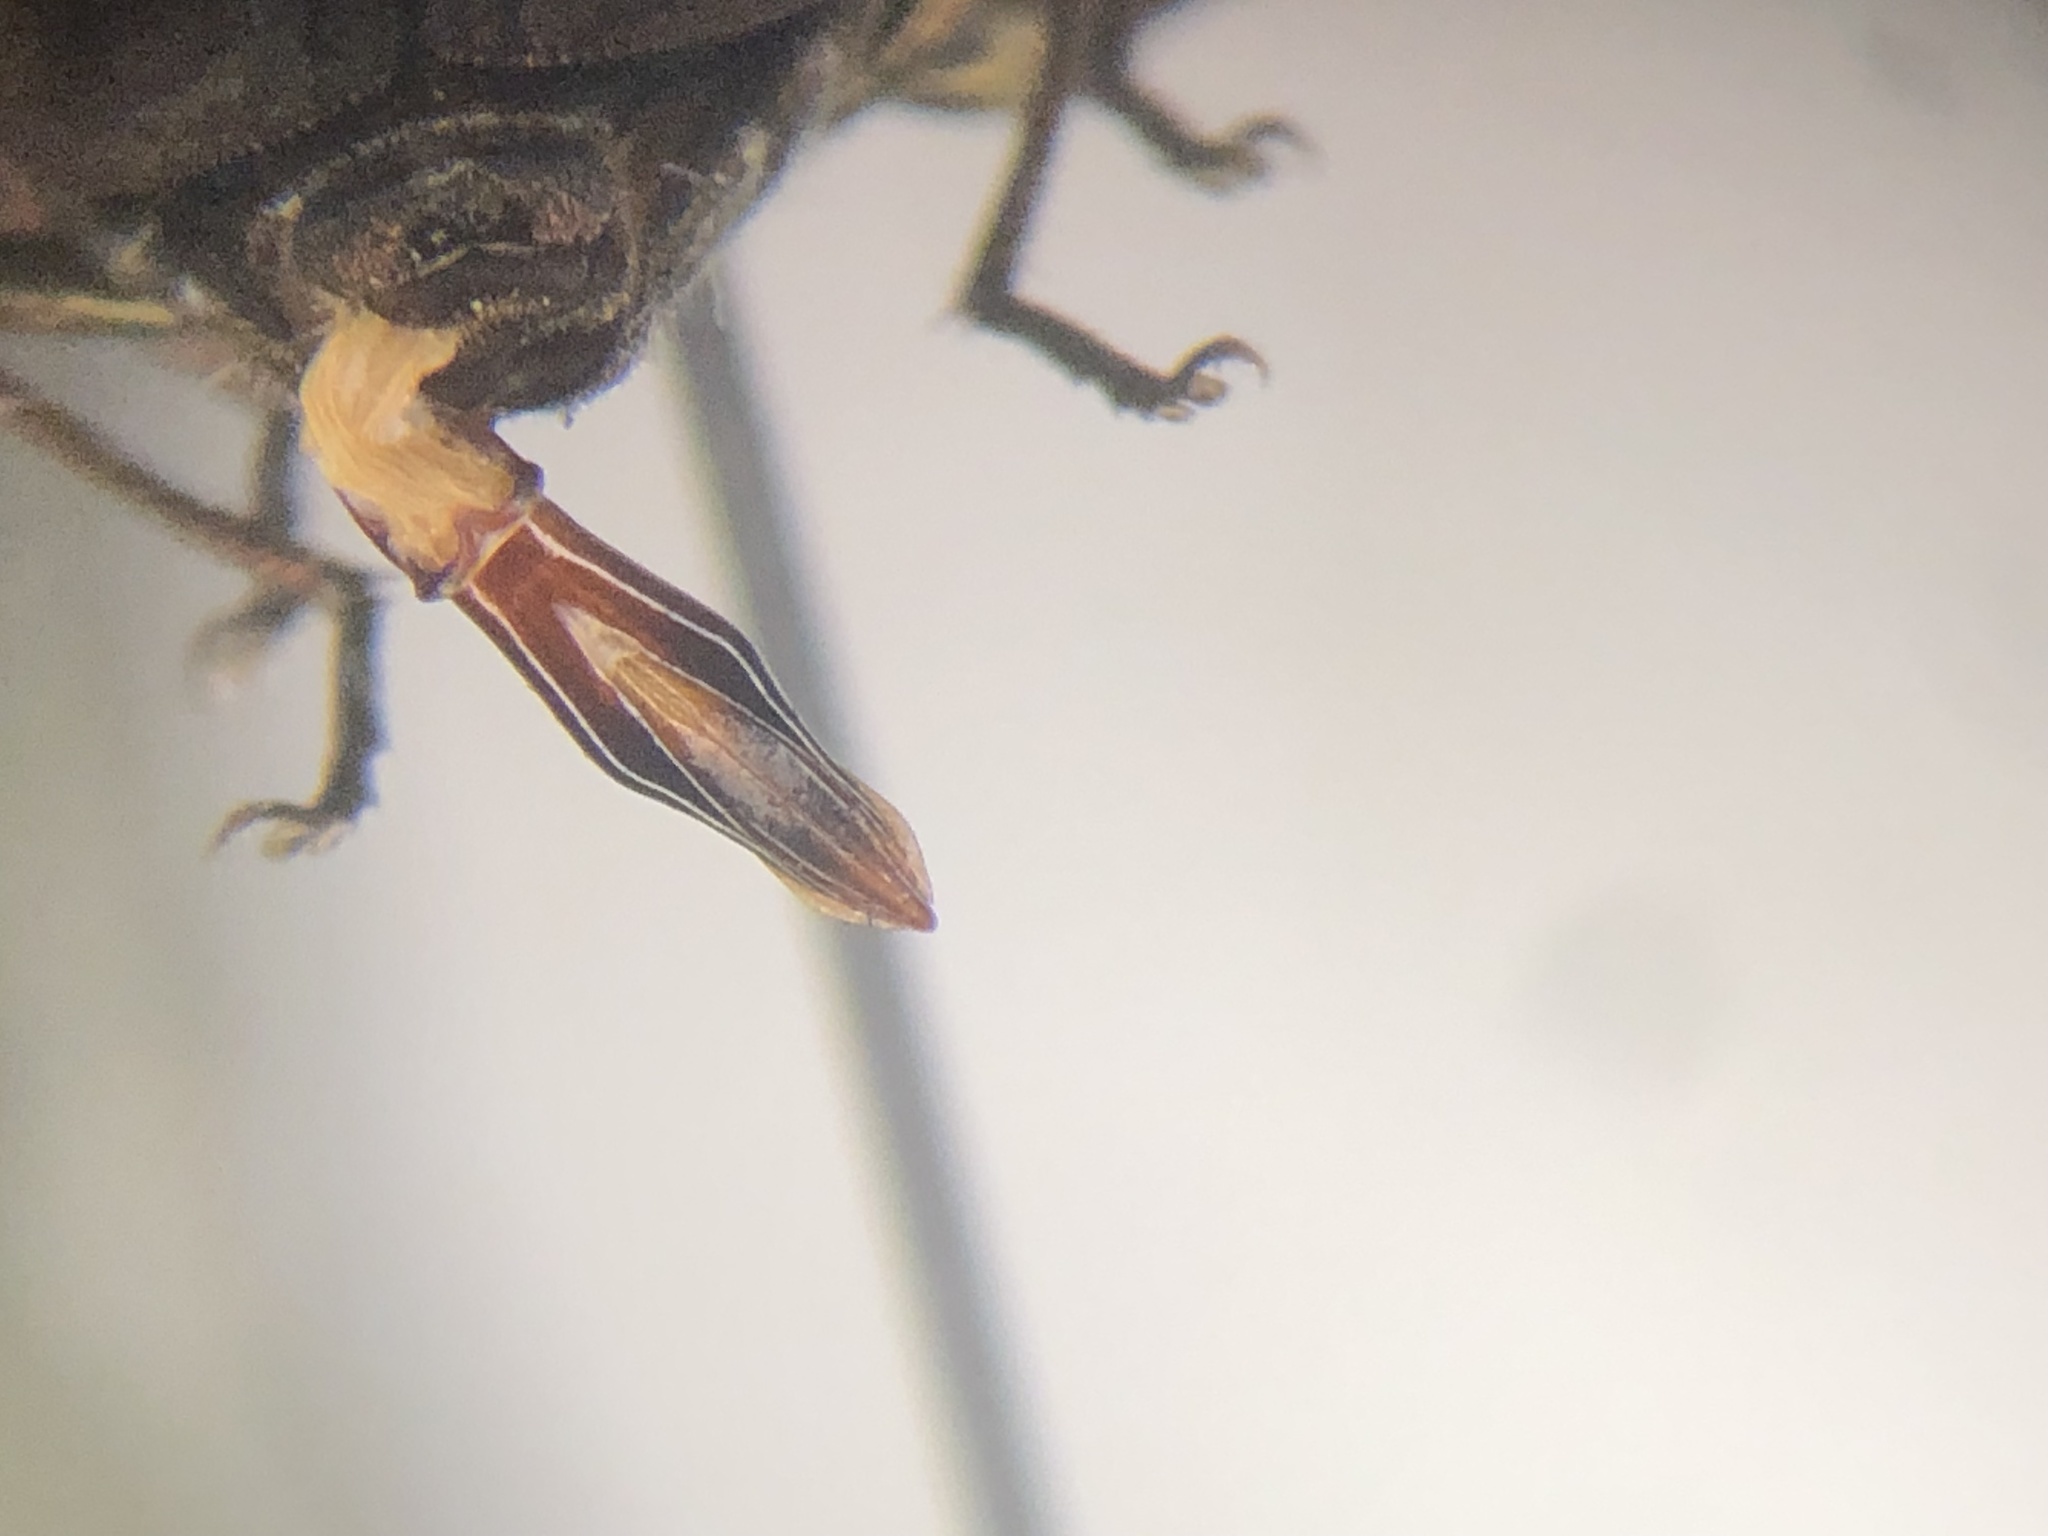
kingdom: Animalia
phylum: Arthropoda
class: Insecta
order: Coleoptera
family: Buprestidae
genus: Chrysobothris
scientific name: Chrysobothris dentipes
